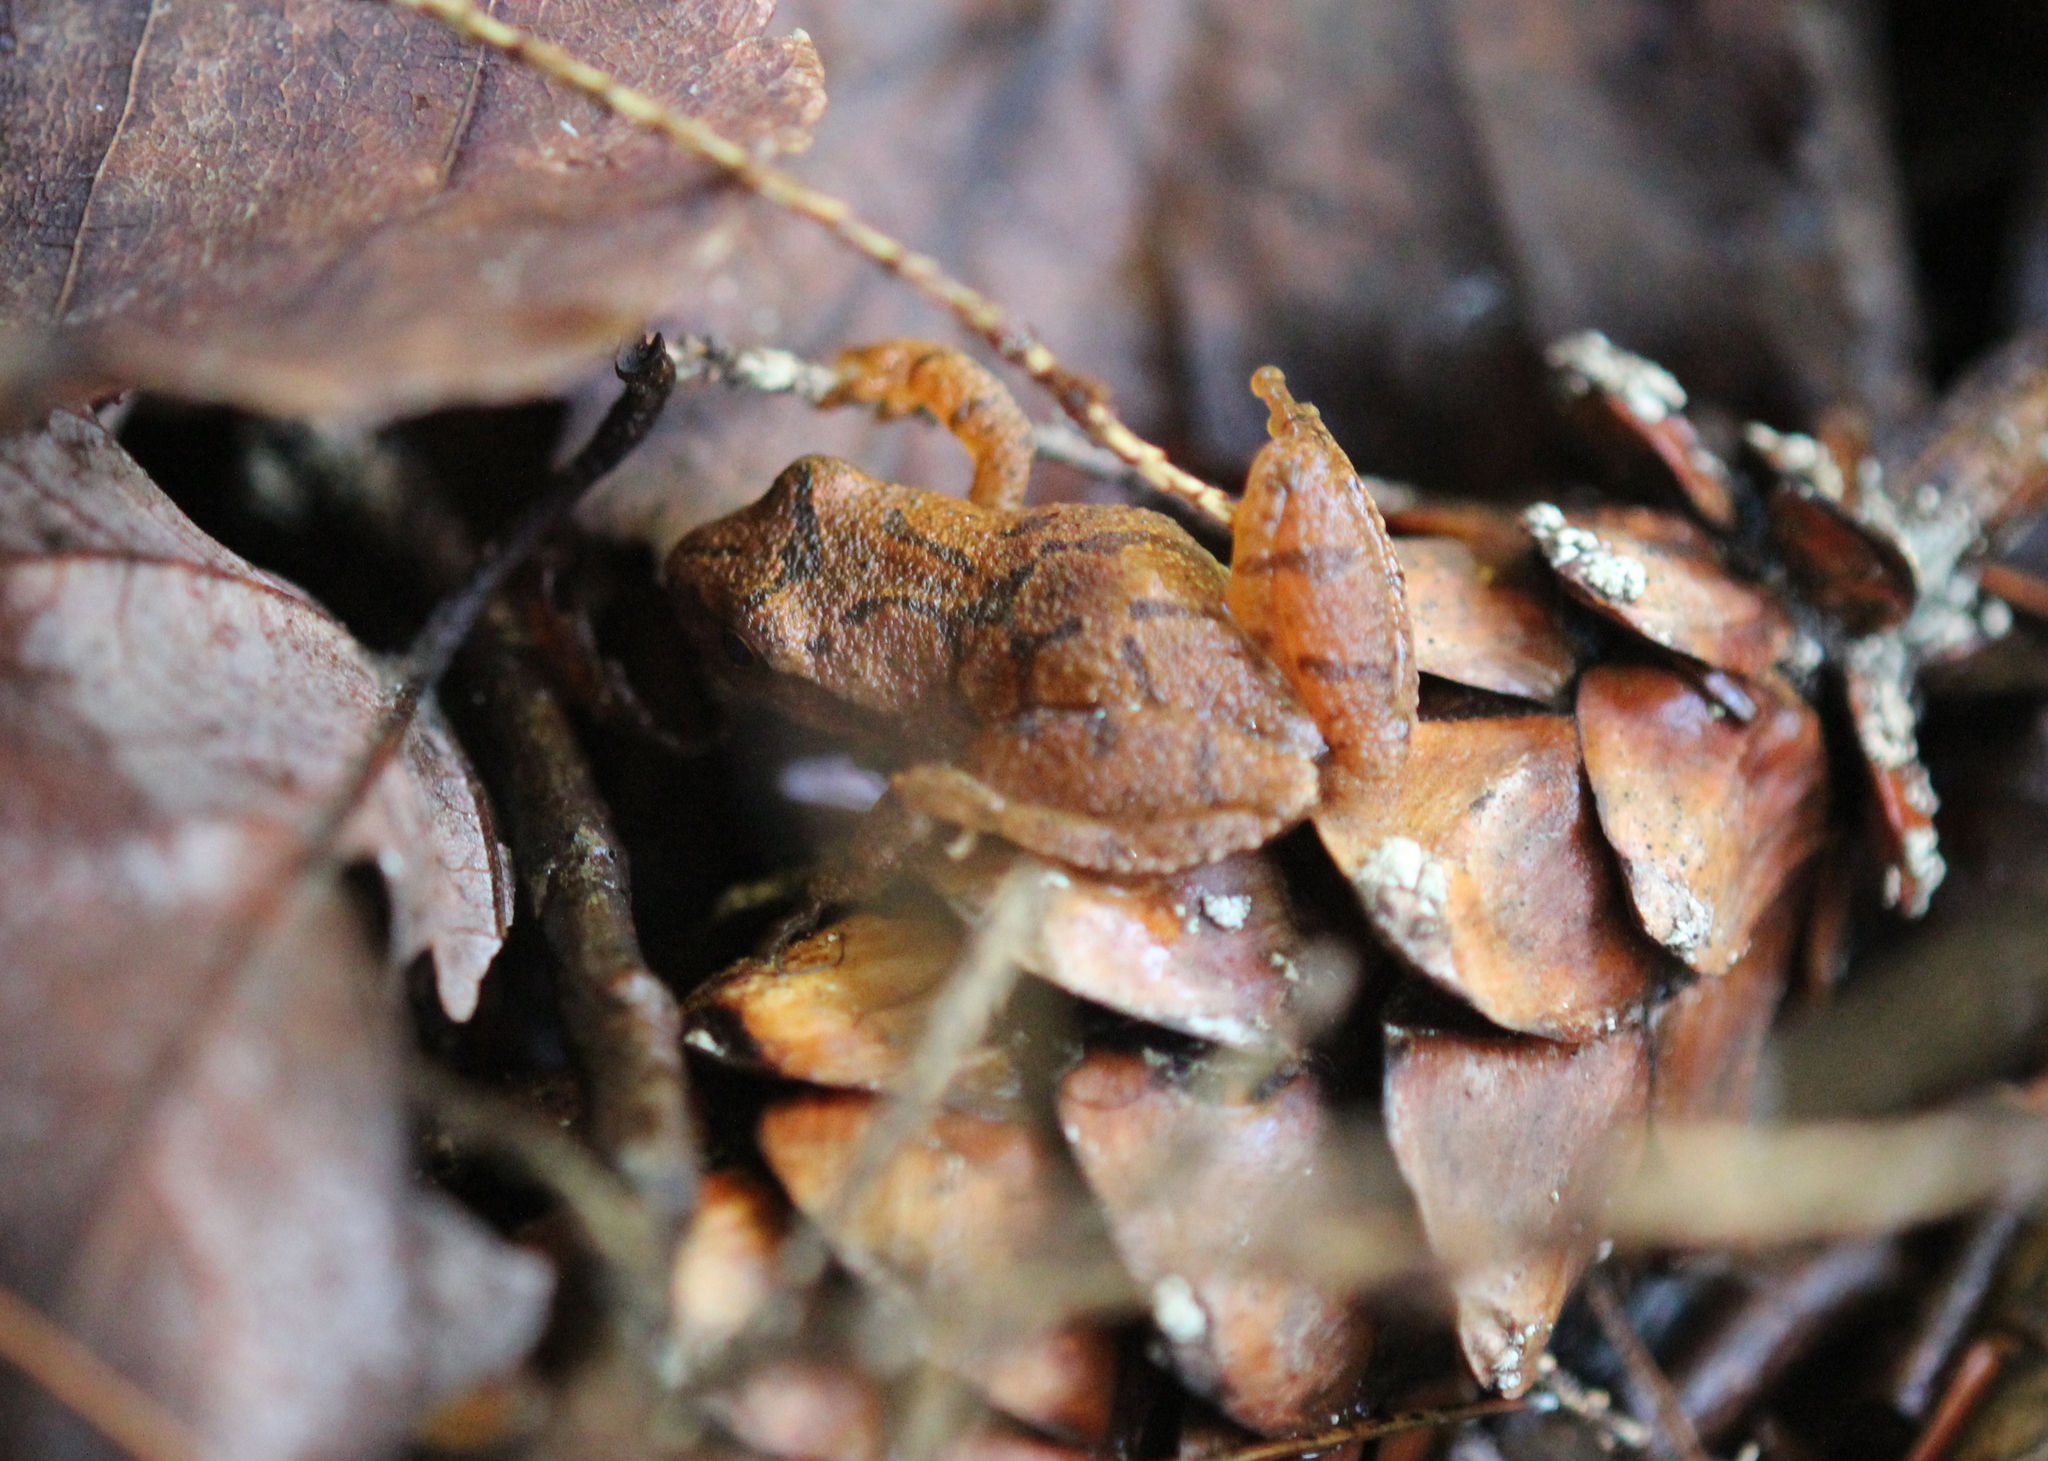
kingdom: Animalia
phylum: Chordata
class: Amphibia
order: Anura
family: Hylidae
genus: Pseudacris
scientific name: Pseudacris crucifer
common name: Spring peeper
